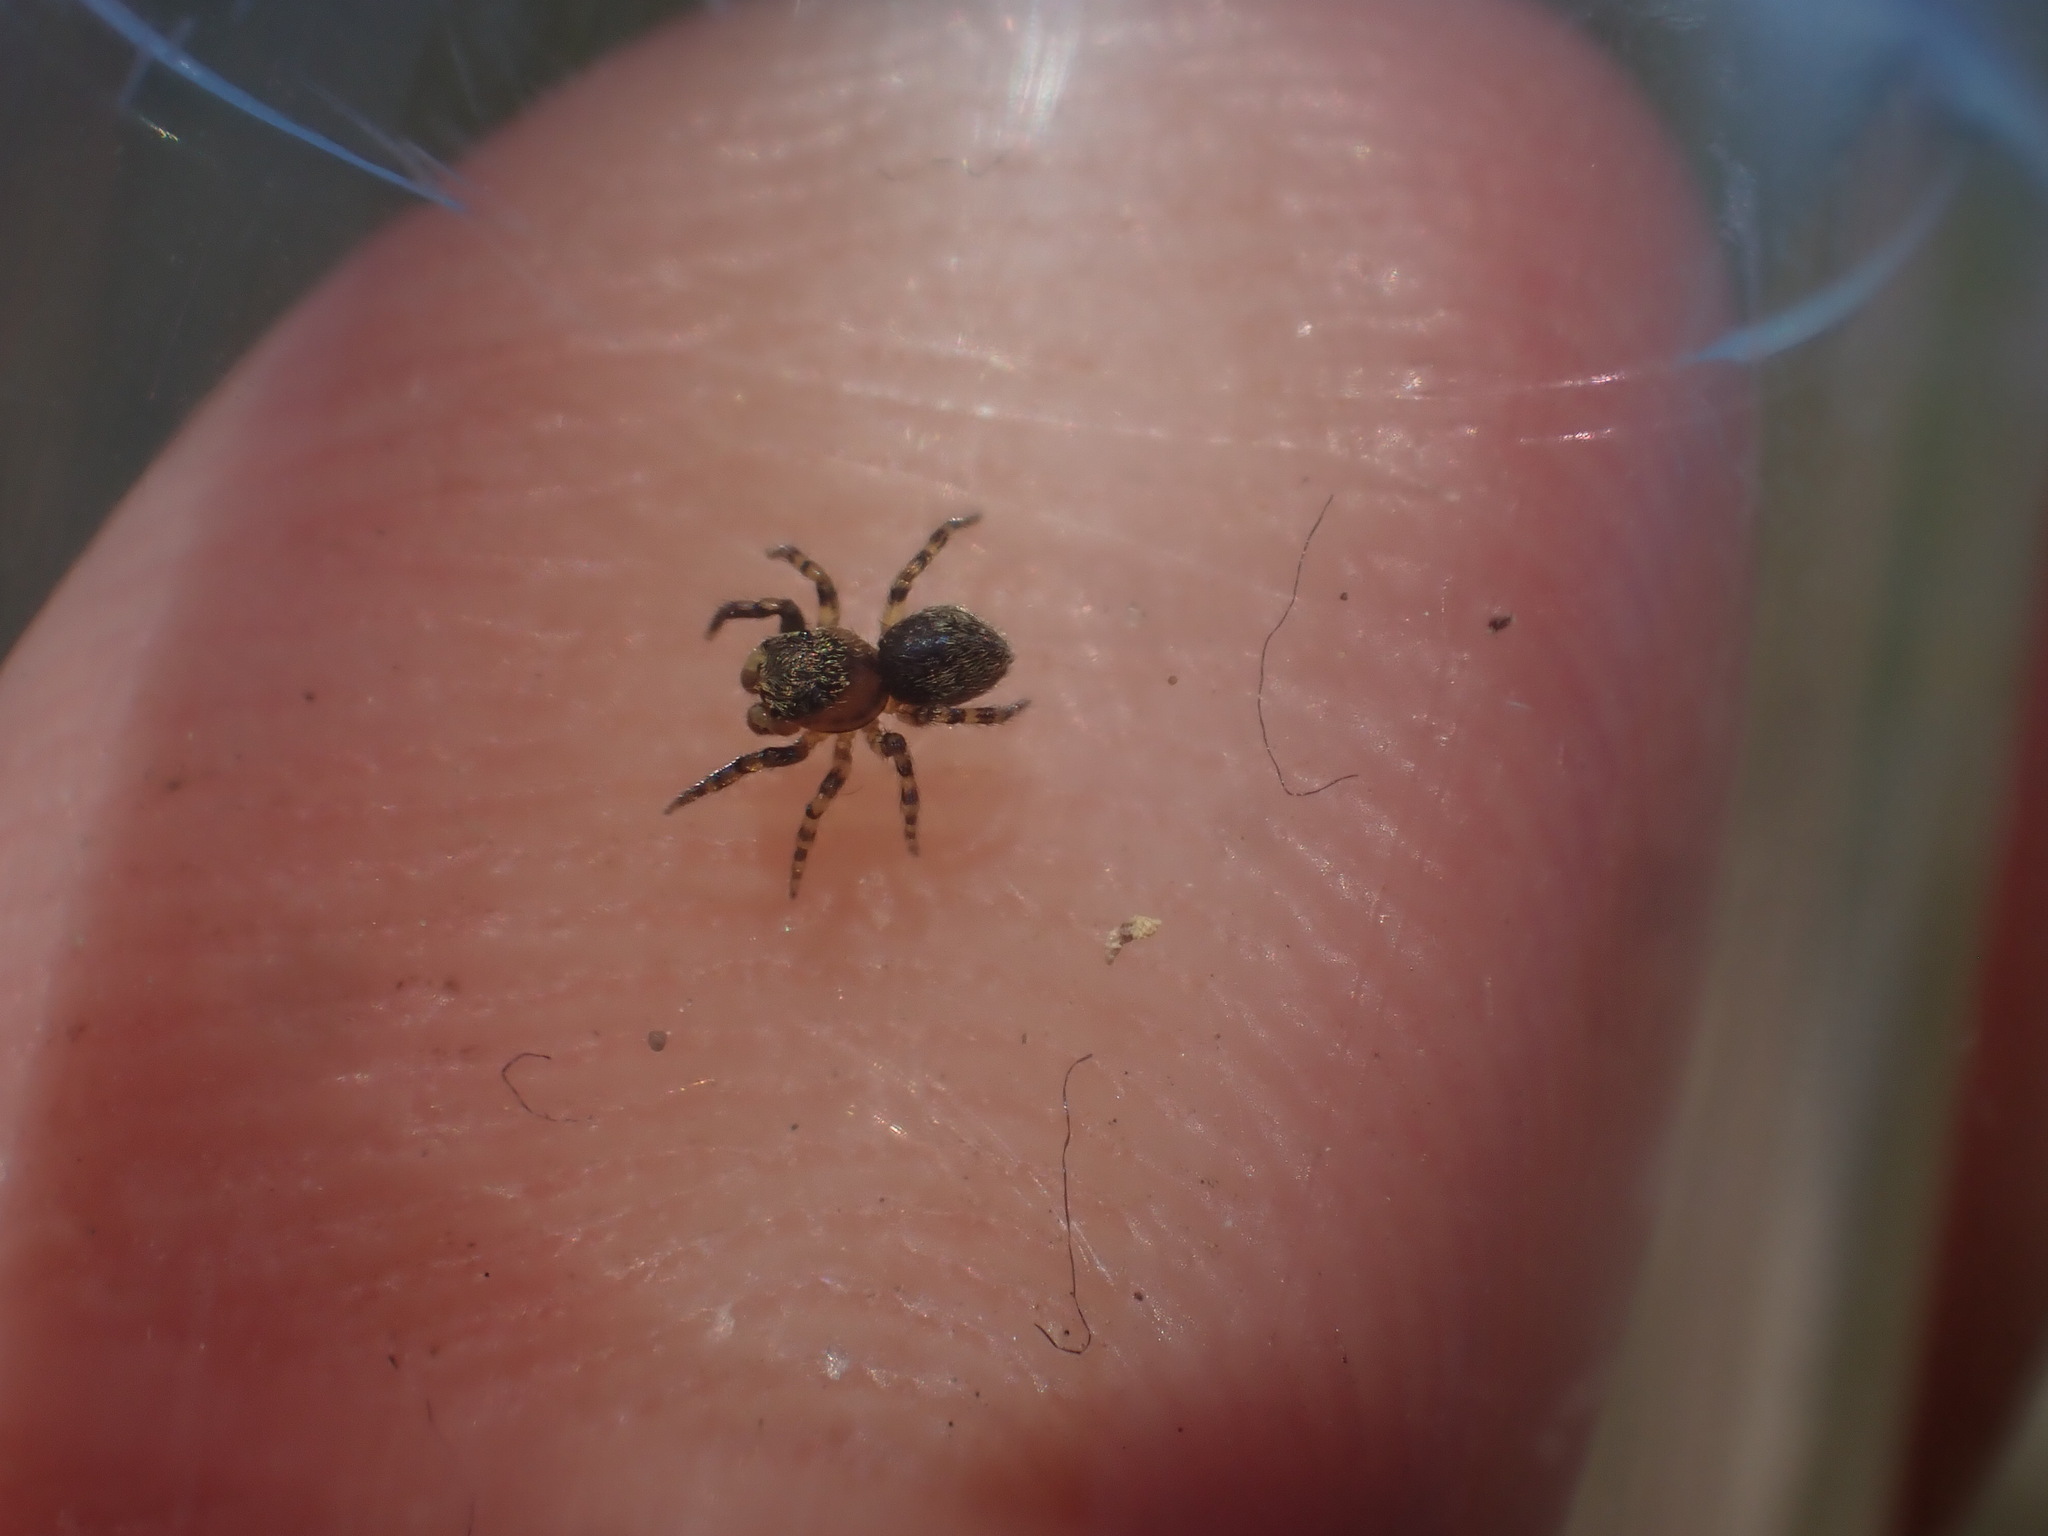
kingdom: Animalia
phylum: Arthropoda
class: Arachnida
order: Araneae
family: Salticidae
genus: Talavera
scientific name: Talavera aequipes
